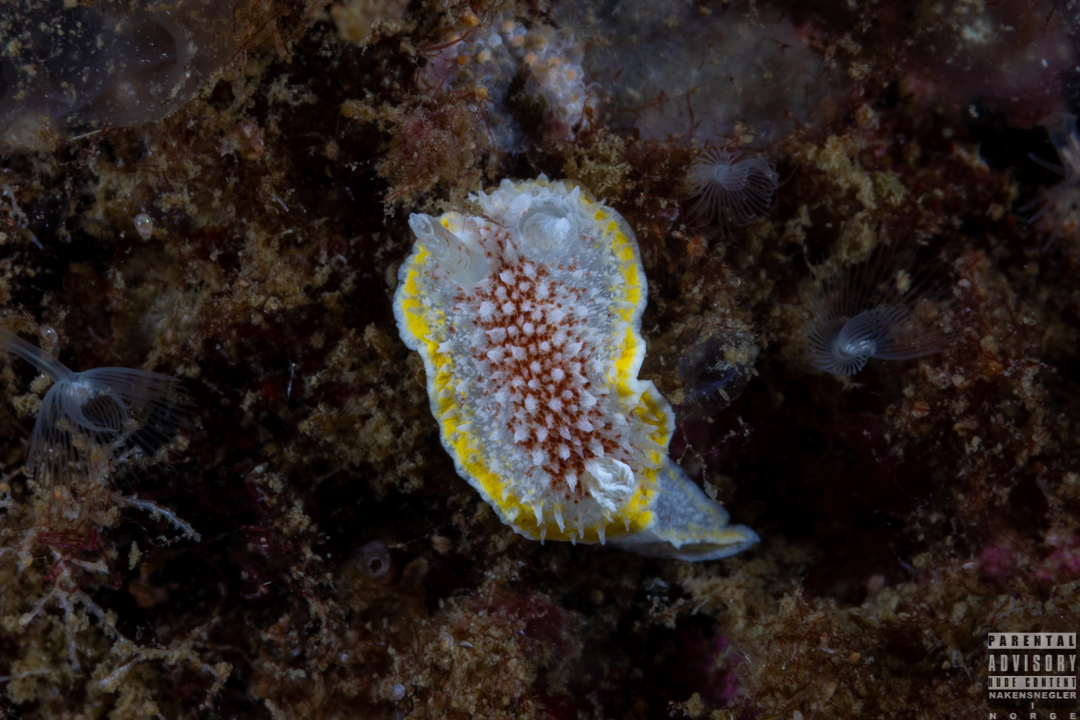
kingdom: Animalia
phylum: Mollusca
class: Gastropoda
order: Nudibranchia
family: Calycidorididae
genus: Diaphorodoris
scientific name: Diaphorodoris luteocincta
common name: Fried egg nudibranch
